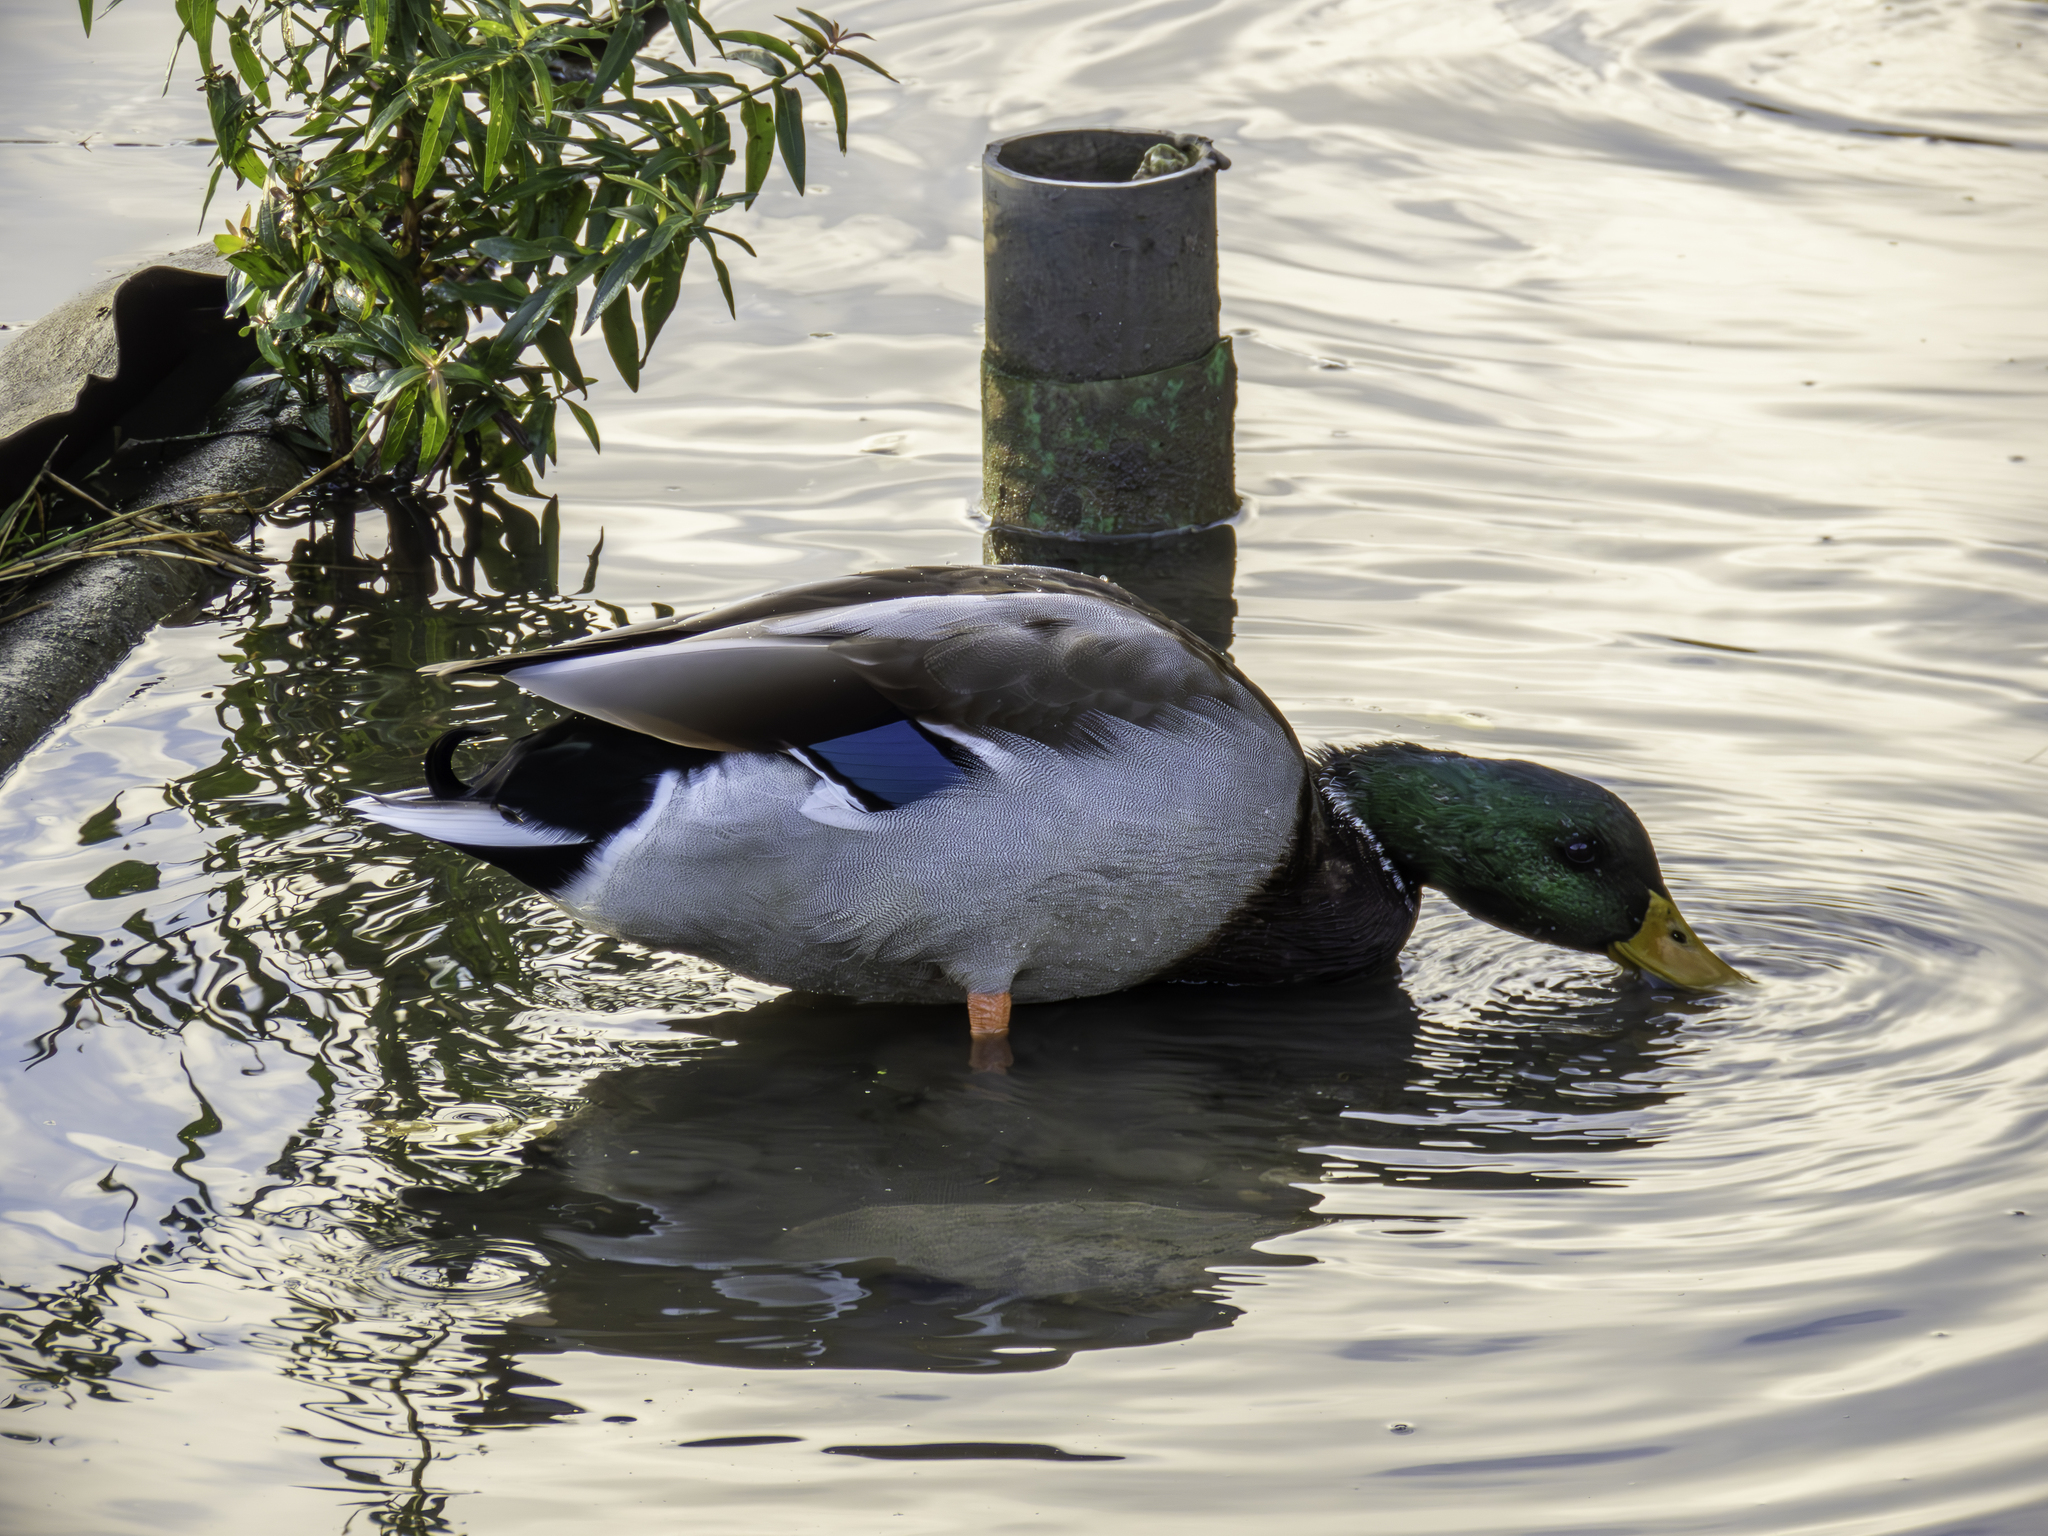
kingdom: Animalia
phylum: Chordata
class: Aves
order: Anseriformes
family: Anatidae
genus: Anas
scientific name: Anas platyrhynchos
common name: Mallard
